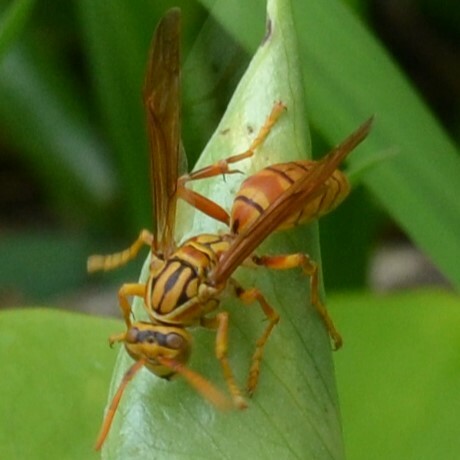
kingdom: Animalia
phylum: Arthropoda
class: Insecta
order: Hymenoptera
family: Eumenidae
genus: Polistes
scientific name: Polistes olivaceus
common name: Paper wasp
